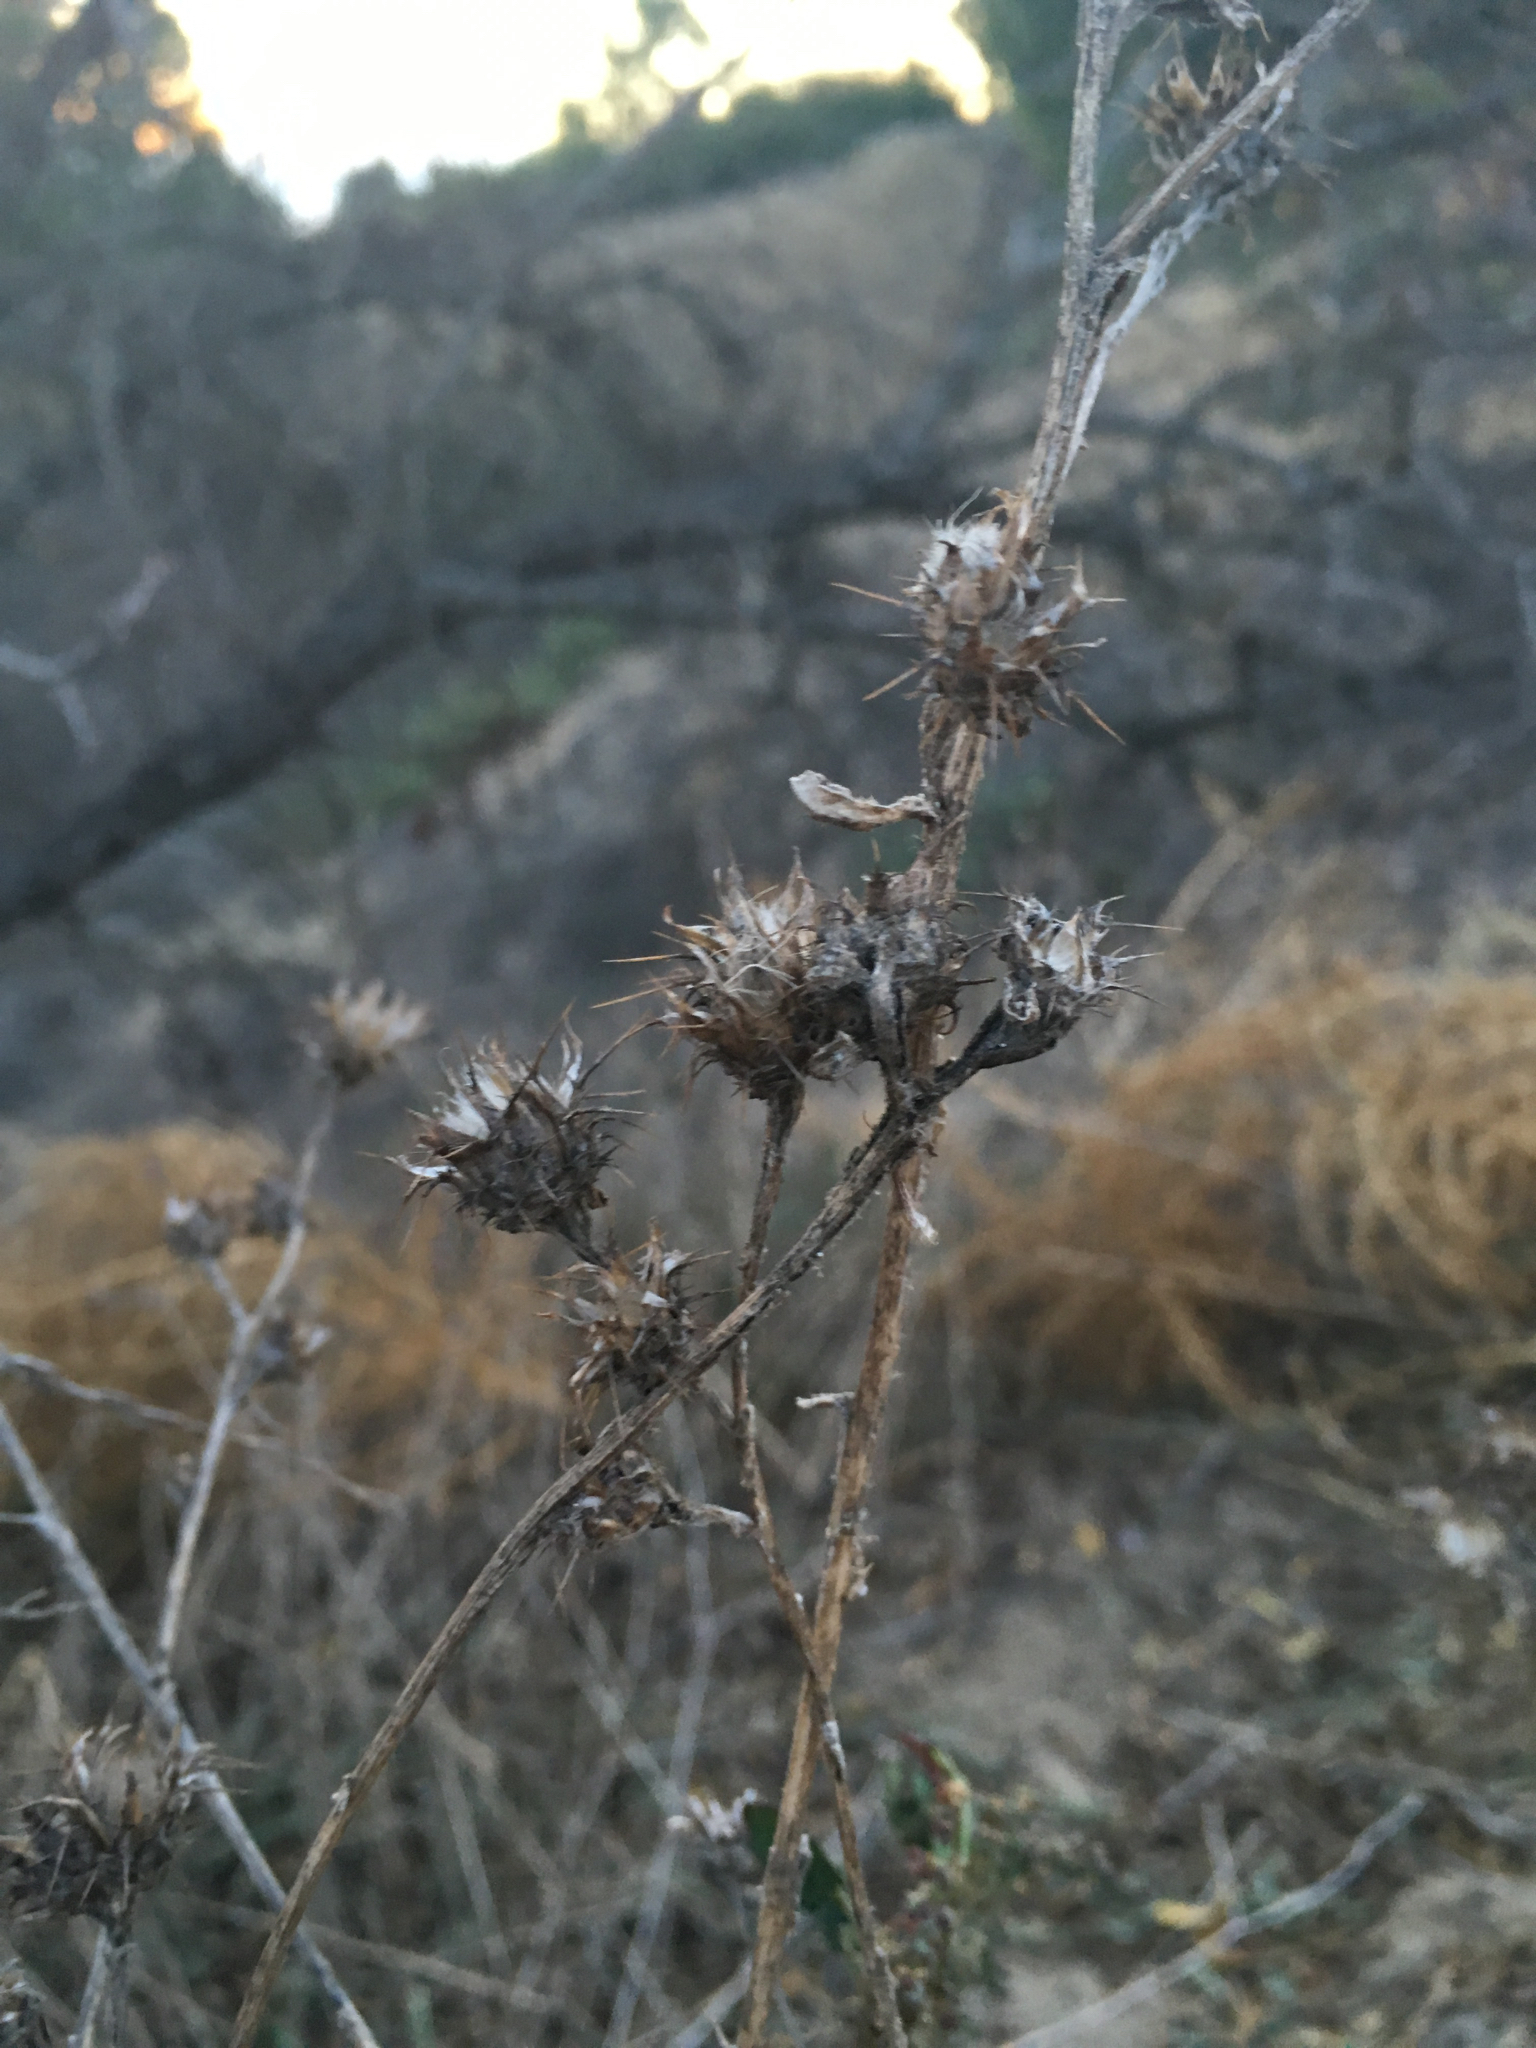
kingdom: Plantae
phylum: Tracheophyta
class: Magnoliopsida
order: Asterales
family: Asteraceae
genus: Centaurea
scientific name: Centaurea melitensis
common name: Maltese star-thistle
